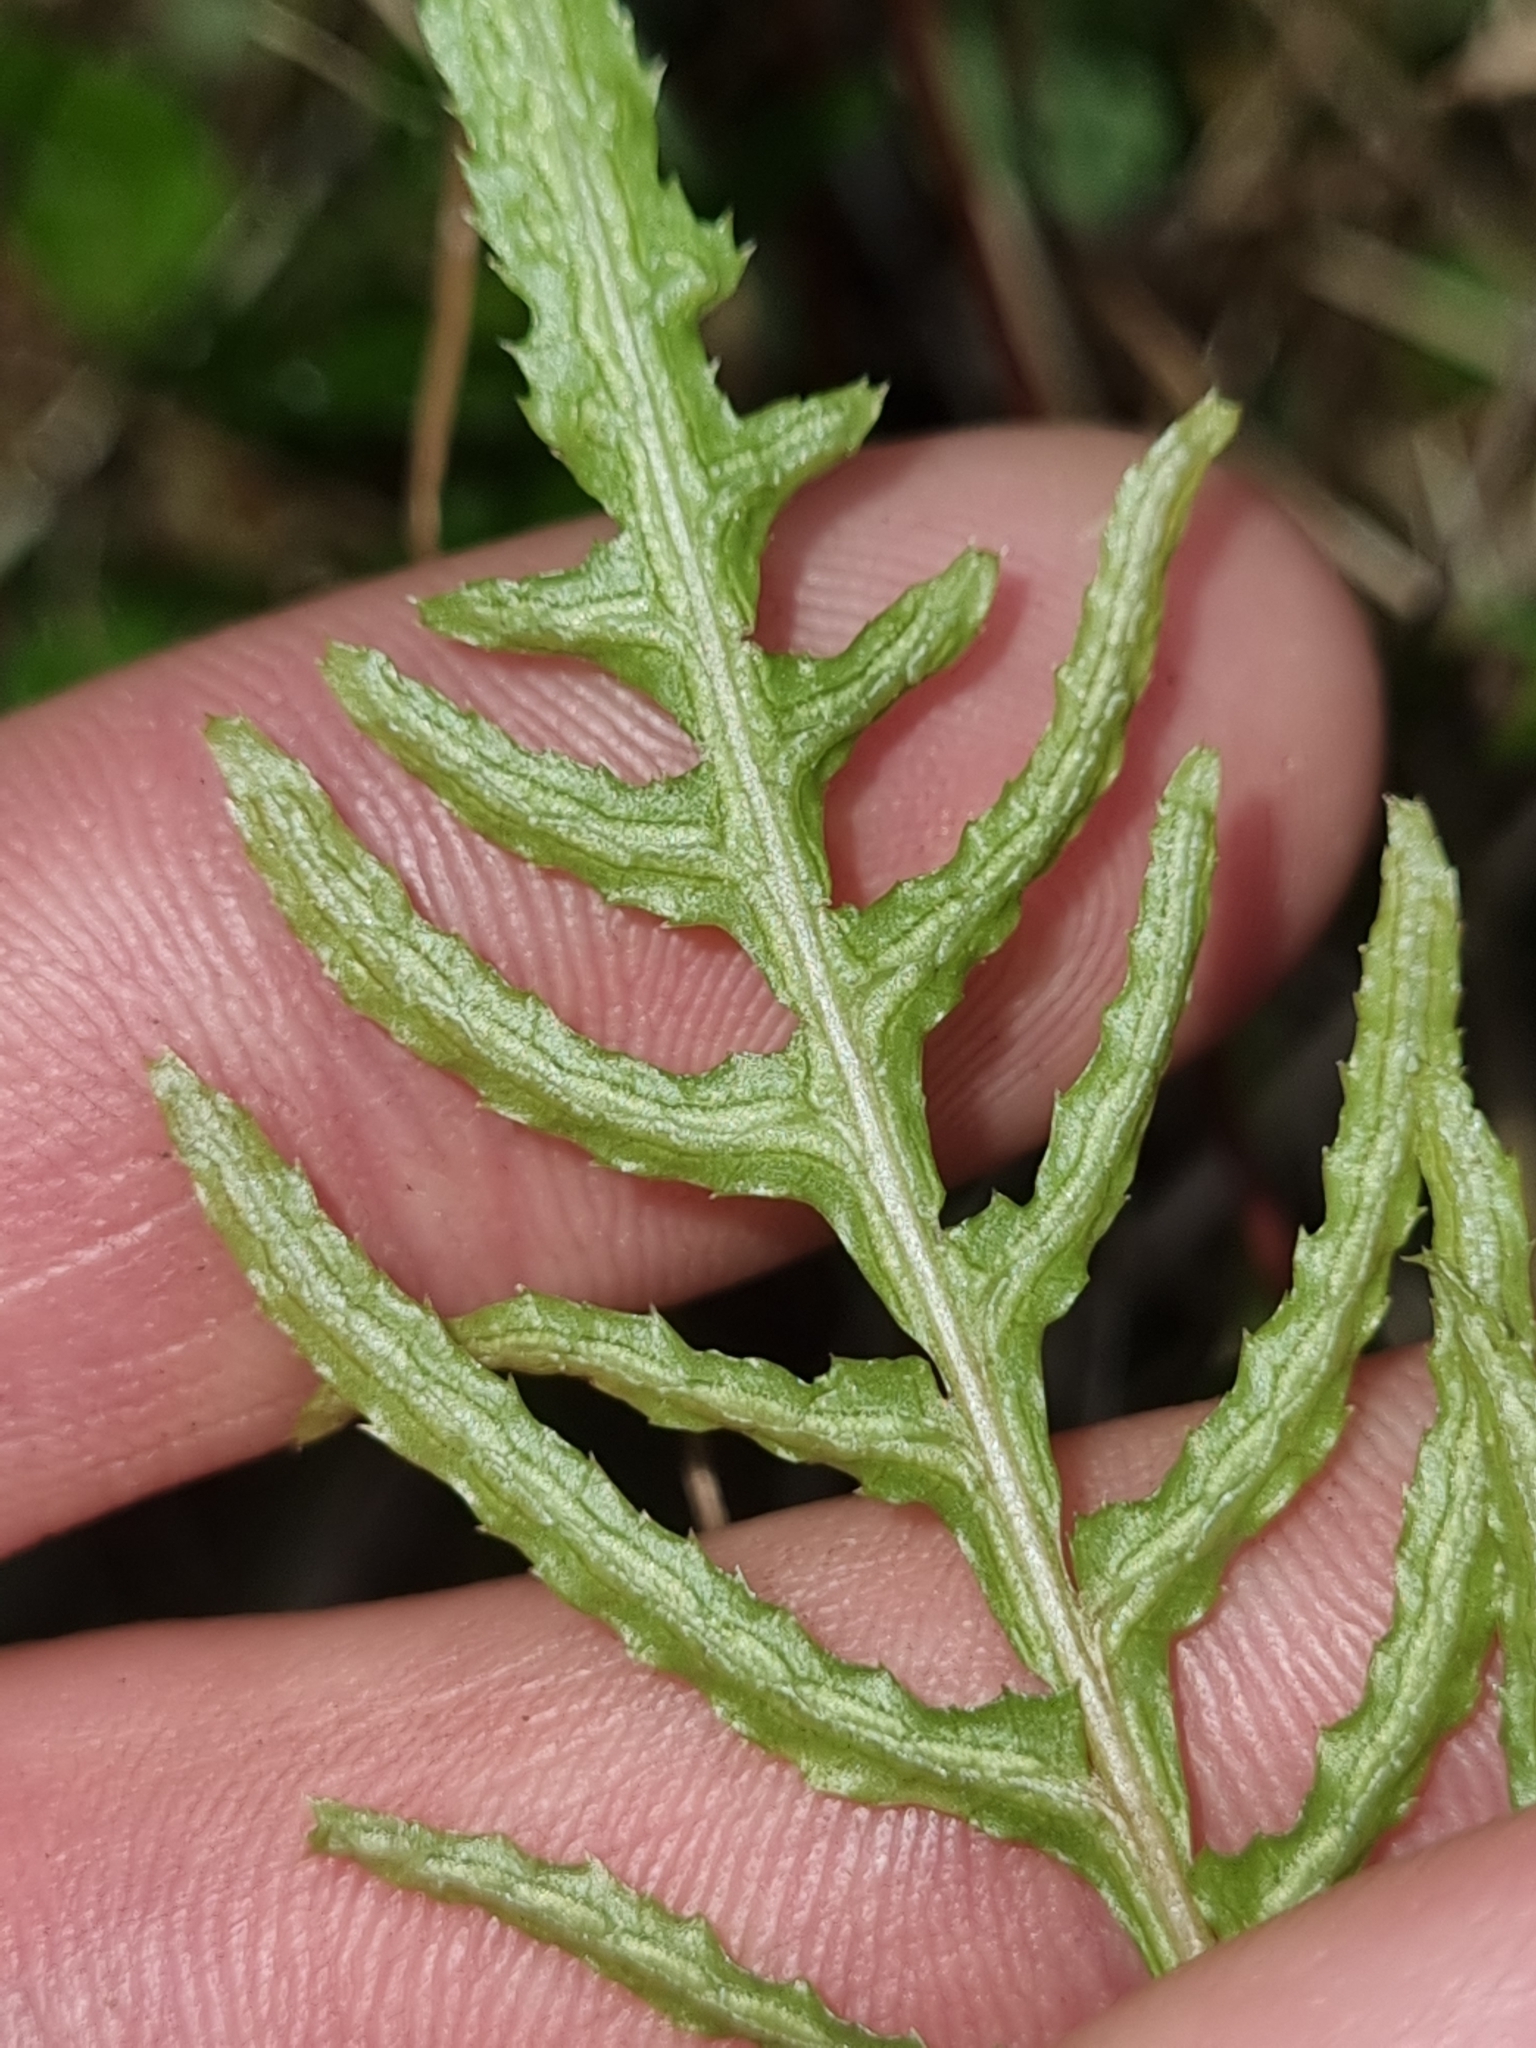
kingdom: Plantae
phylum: Tracheophyta
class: Polypodiopsida
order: Polypodiales
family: Blechnaceae
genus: Doodia
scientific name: Doodia squarrosa
